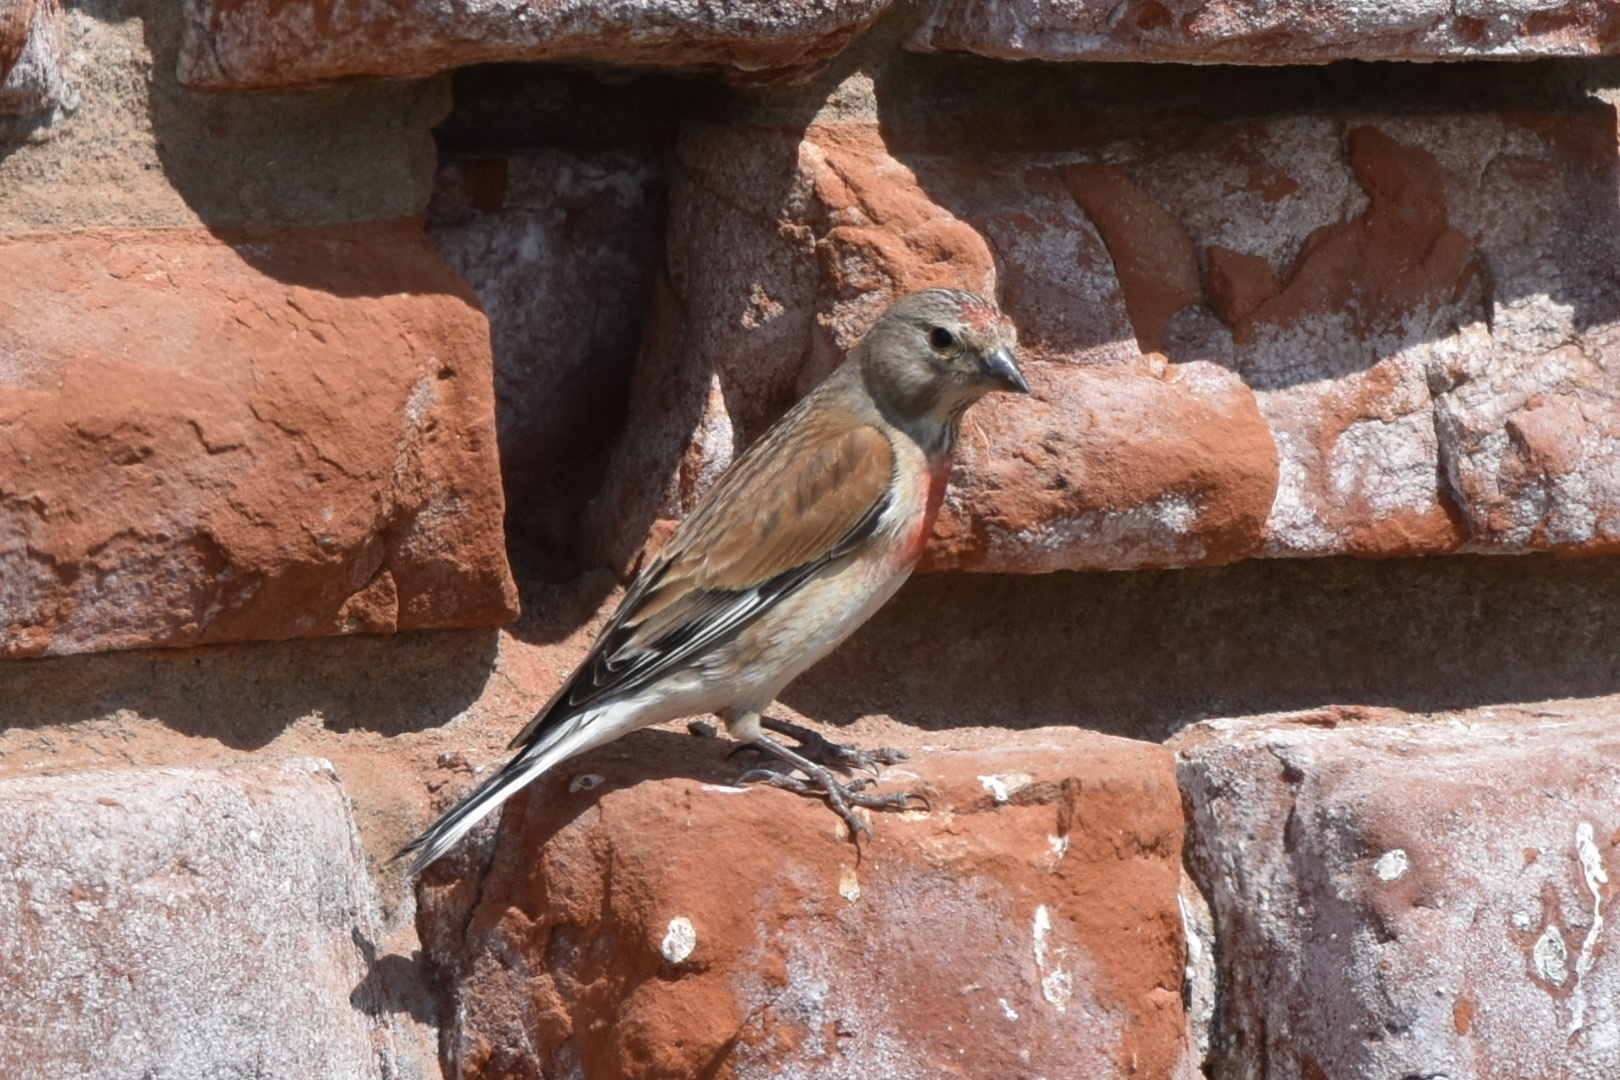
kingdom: Animalia
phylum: Chordata
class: Aves
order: Passeriformes
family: Fringillidae
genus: Linaria
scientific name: Linaria cannabina
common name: Common linnet
